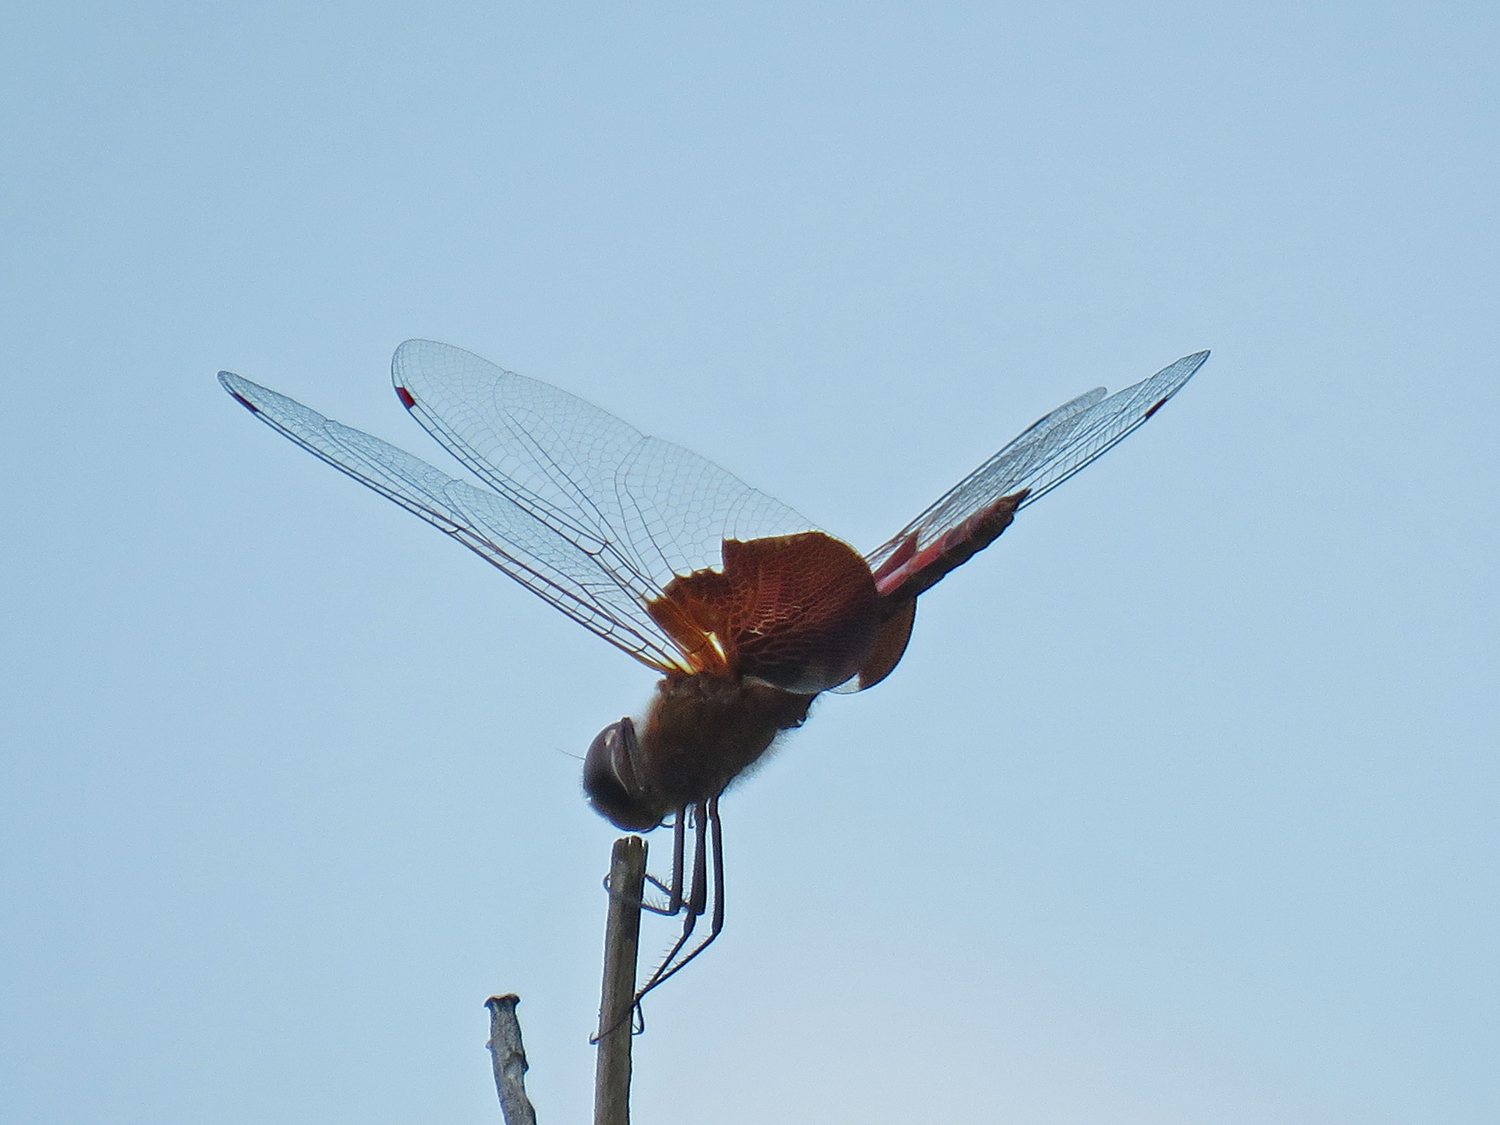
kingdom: Animalia
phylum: Arthropoda
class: Insecta
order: Odonata
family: Libellulidae
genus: Tramea
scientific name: Tramea carolina
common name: Carolina saddlebags
